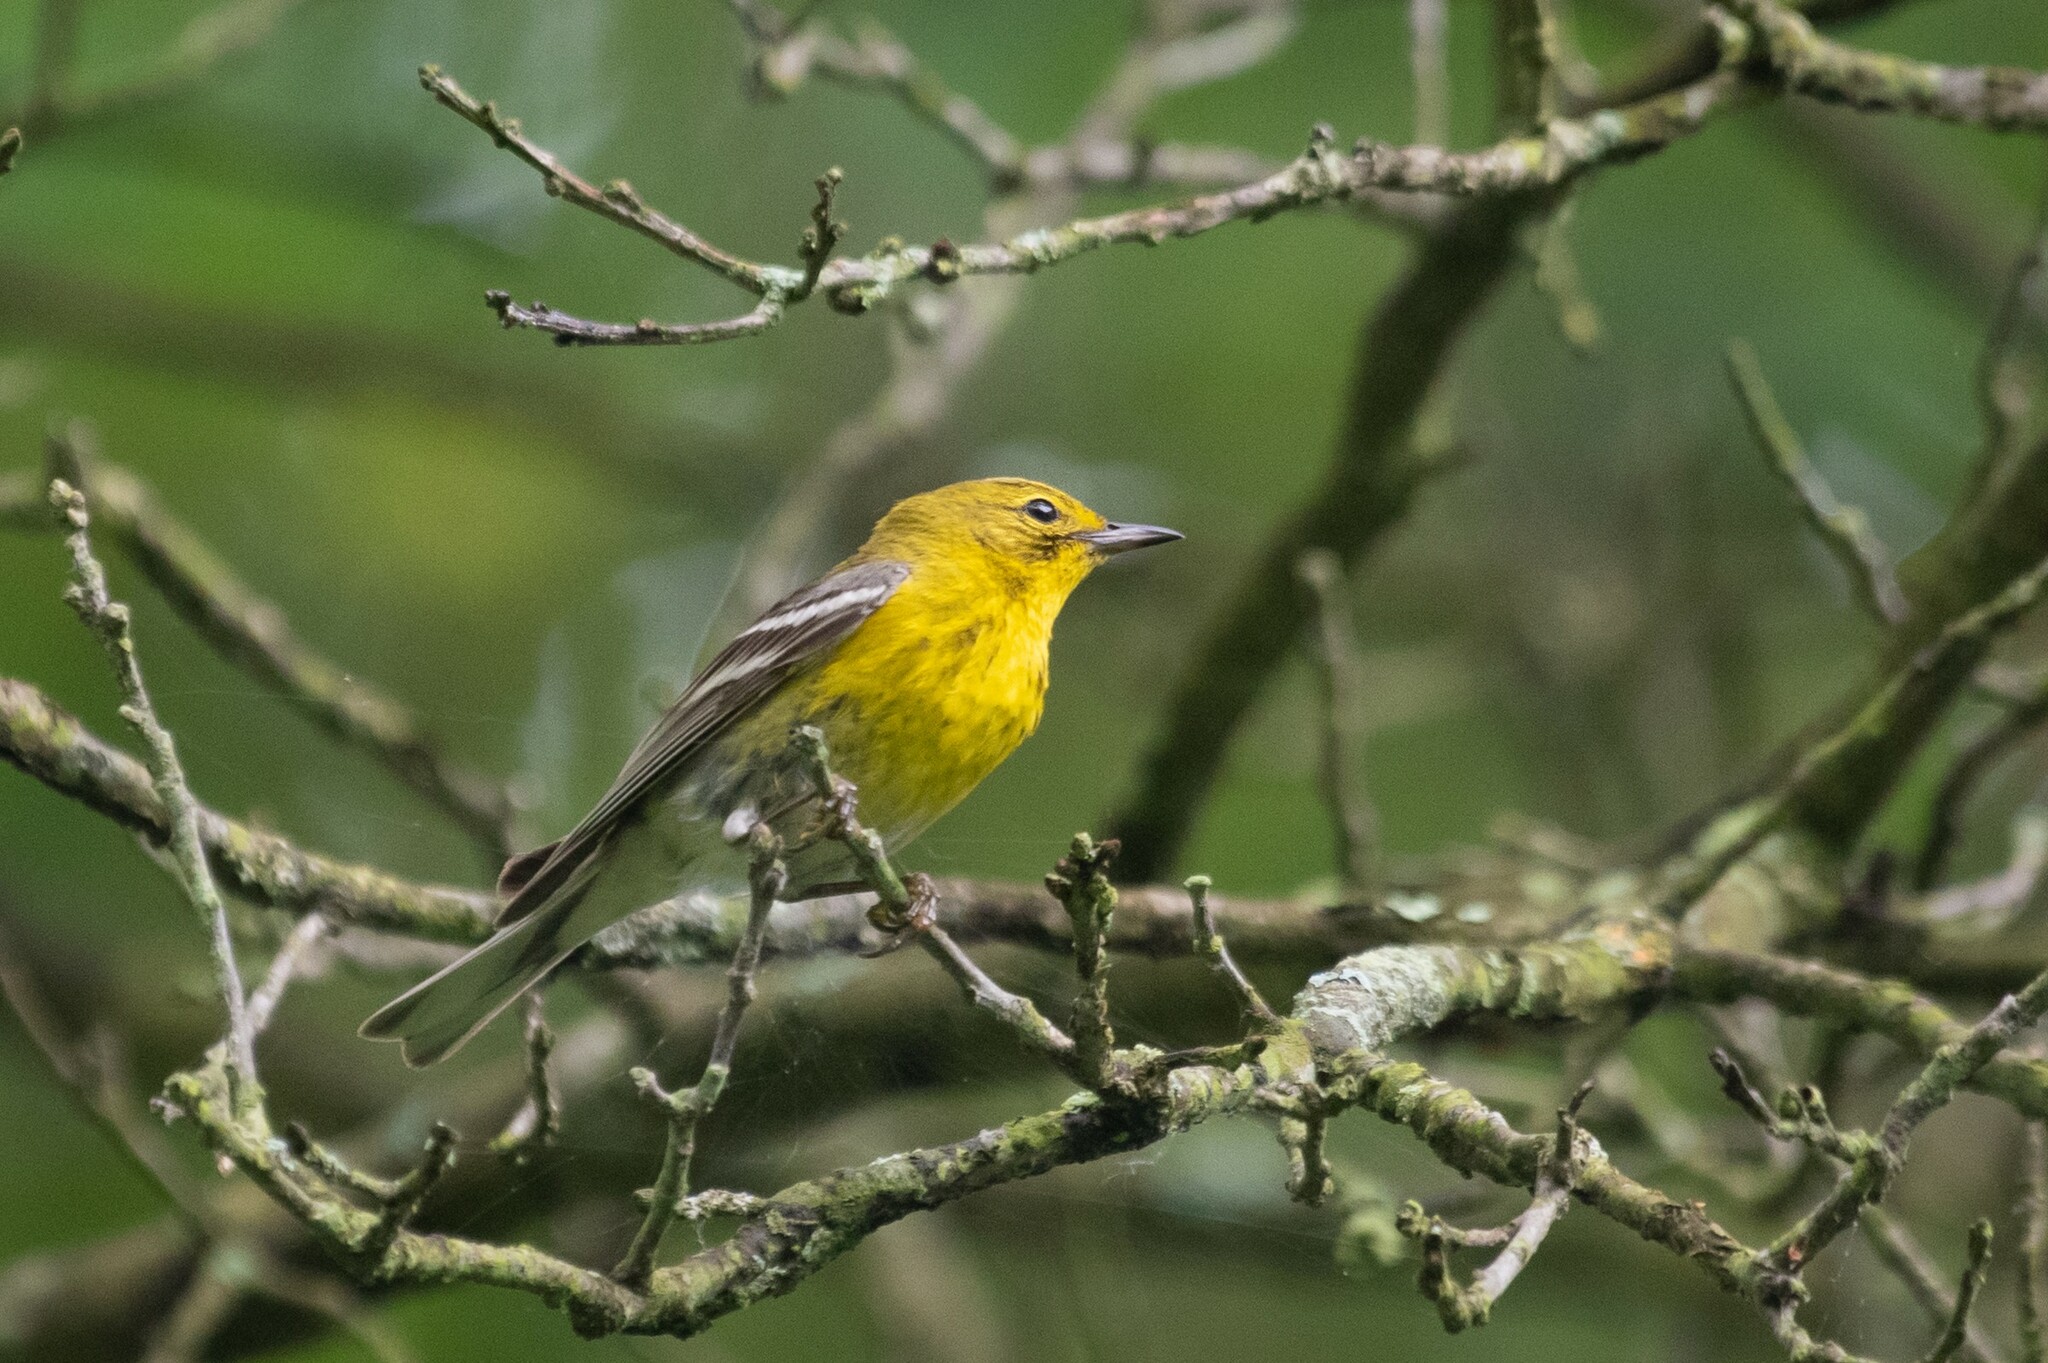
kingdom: Animalia
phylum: Chordata
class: Aves
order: Passeriformes
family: Parulidae
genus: Setophaga
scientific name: Setophaga pinus
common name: Pine warbler
